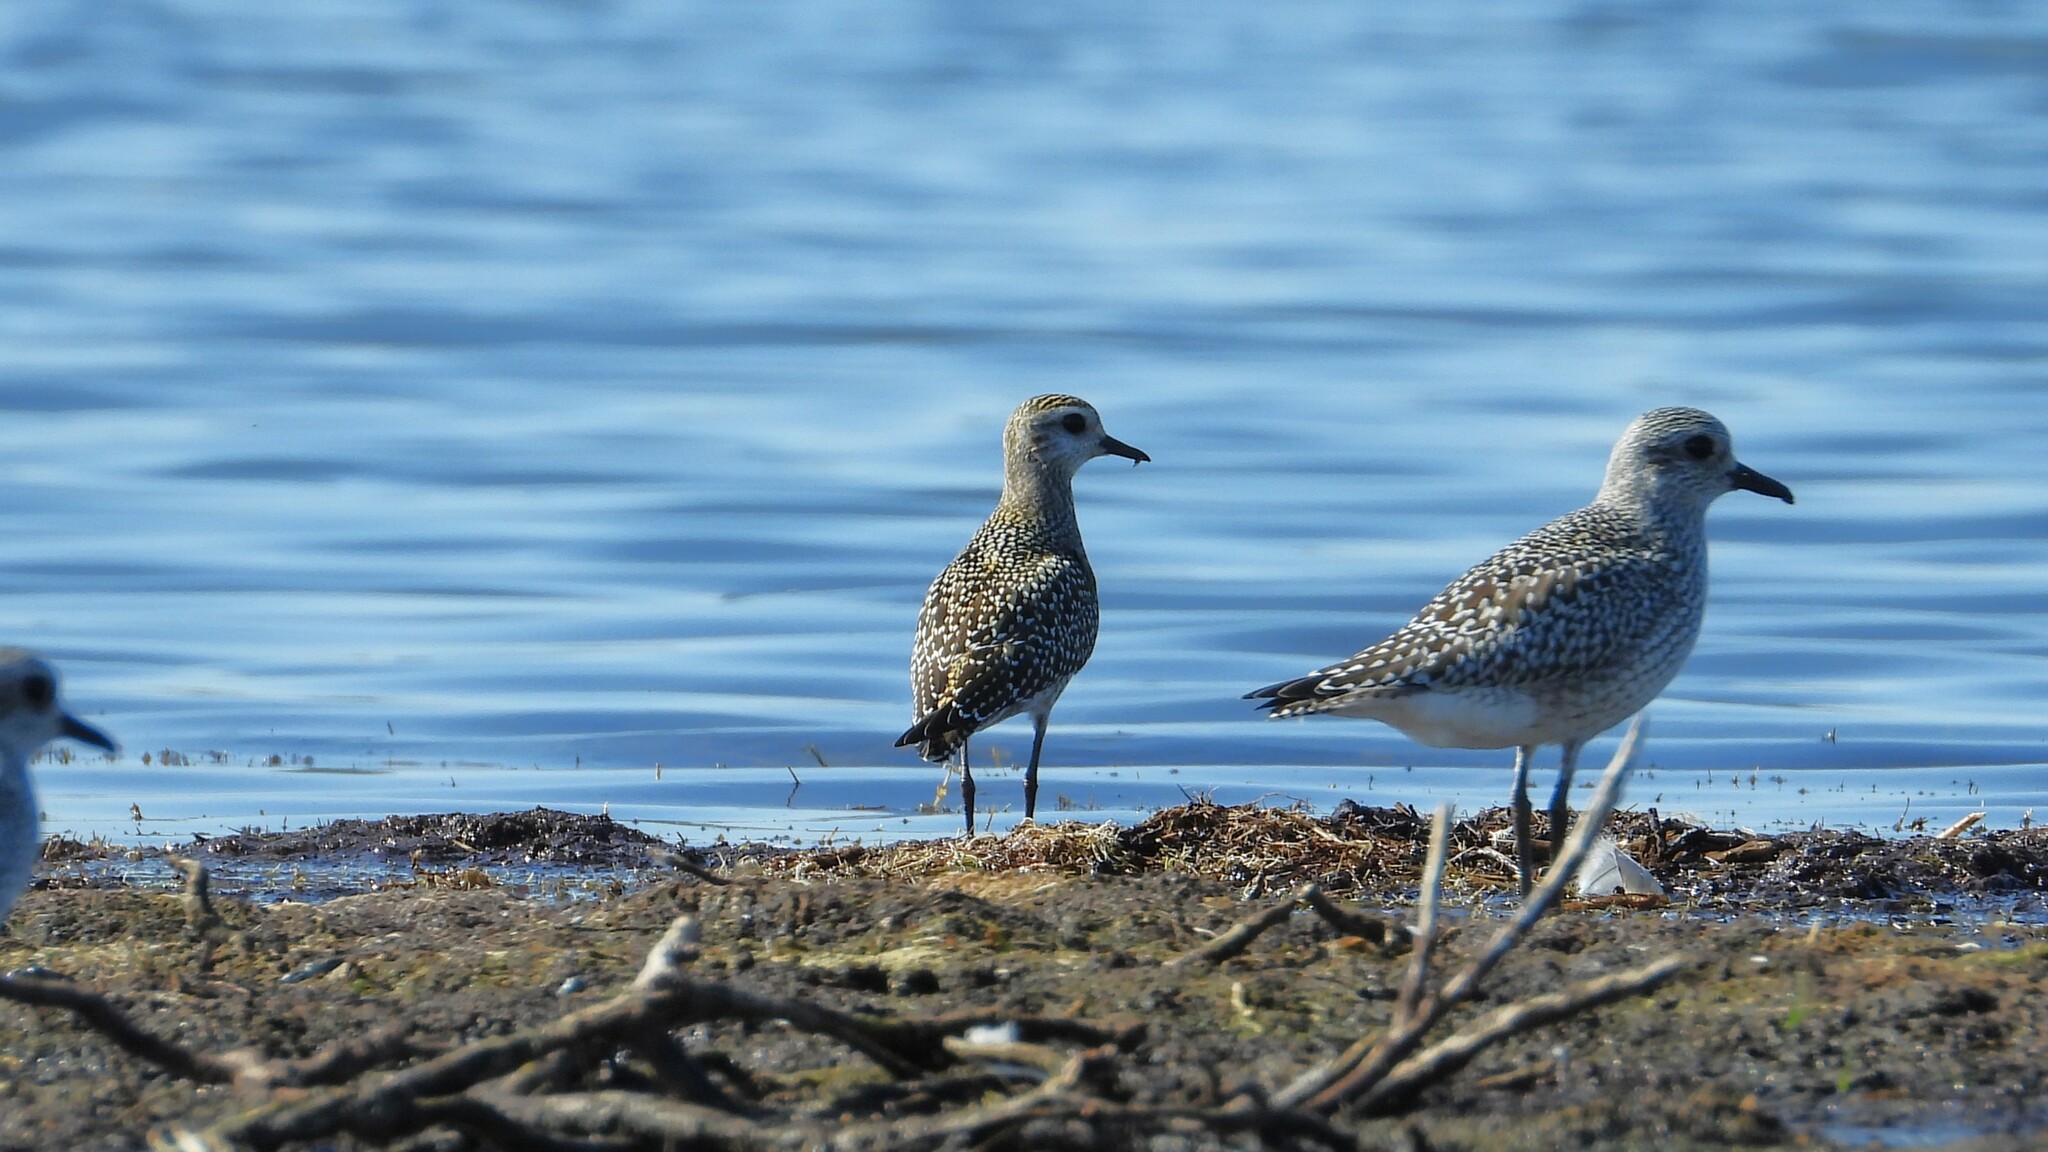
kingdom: Animalia
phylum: Chordata
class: Aves
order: Charadriiformes
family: Charadriidae
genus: Pluvialis
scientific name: Pluvialis dominica
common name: American golden plover
